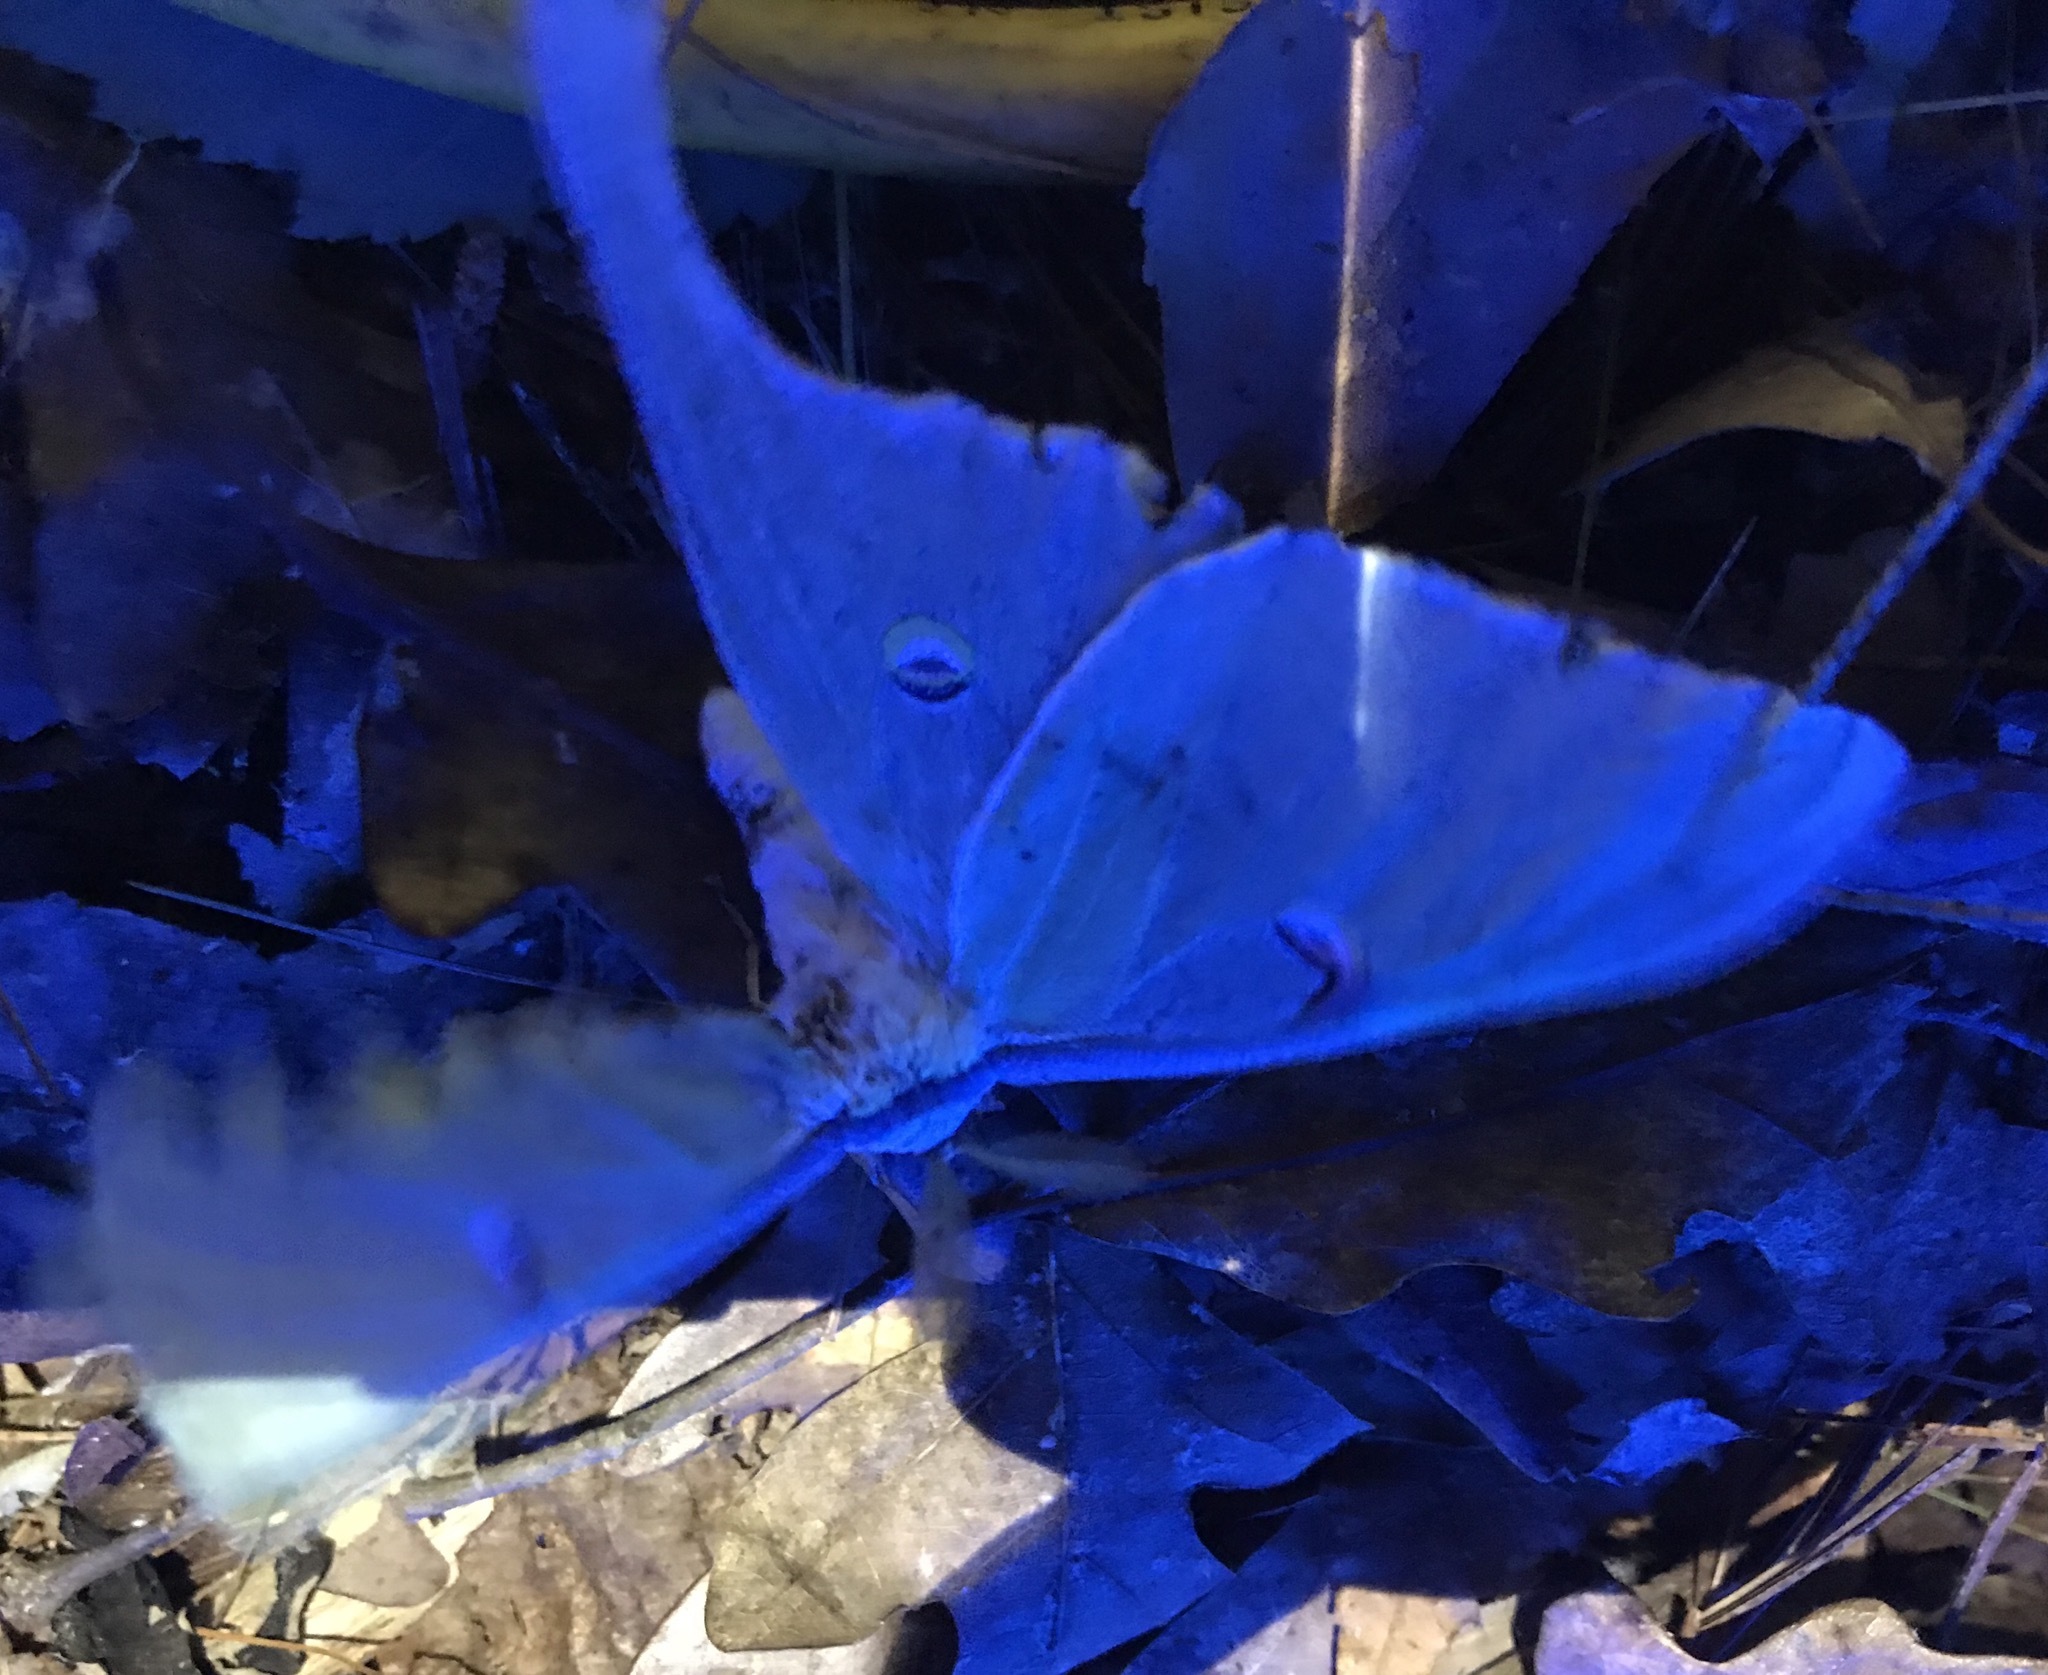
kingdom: Animalia
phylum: Arthropoda
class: Insecta
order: Lepidoptera
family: Saturniidae
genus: Actias
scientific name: Actias luna
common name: Luna moth
